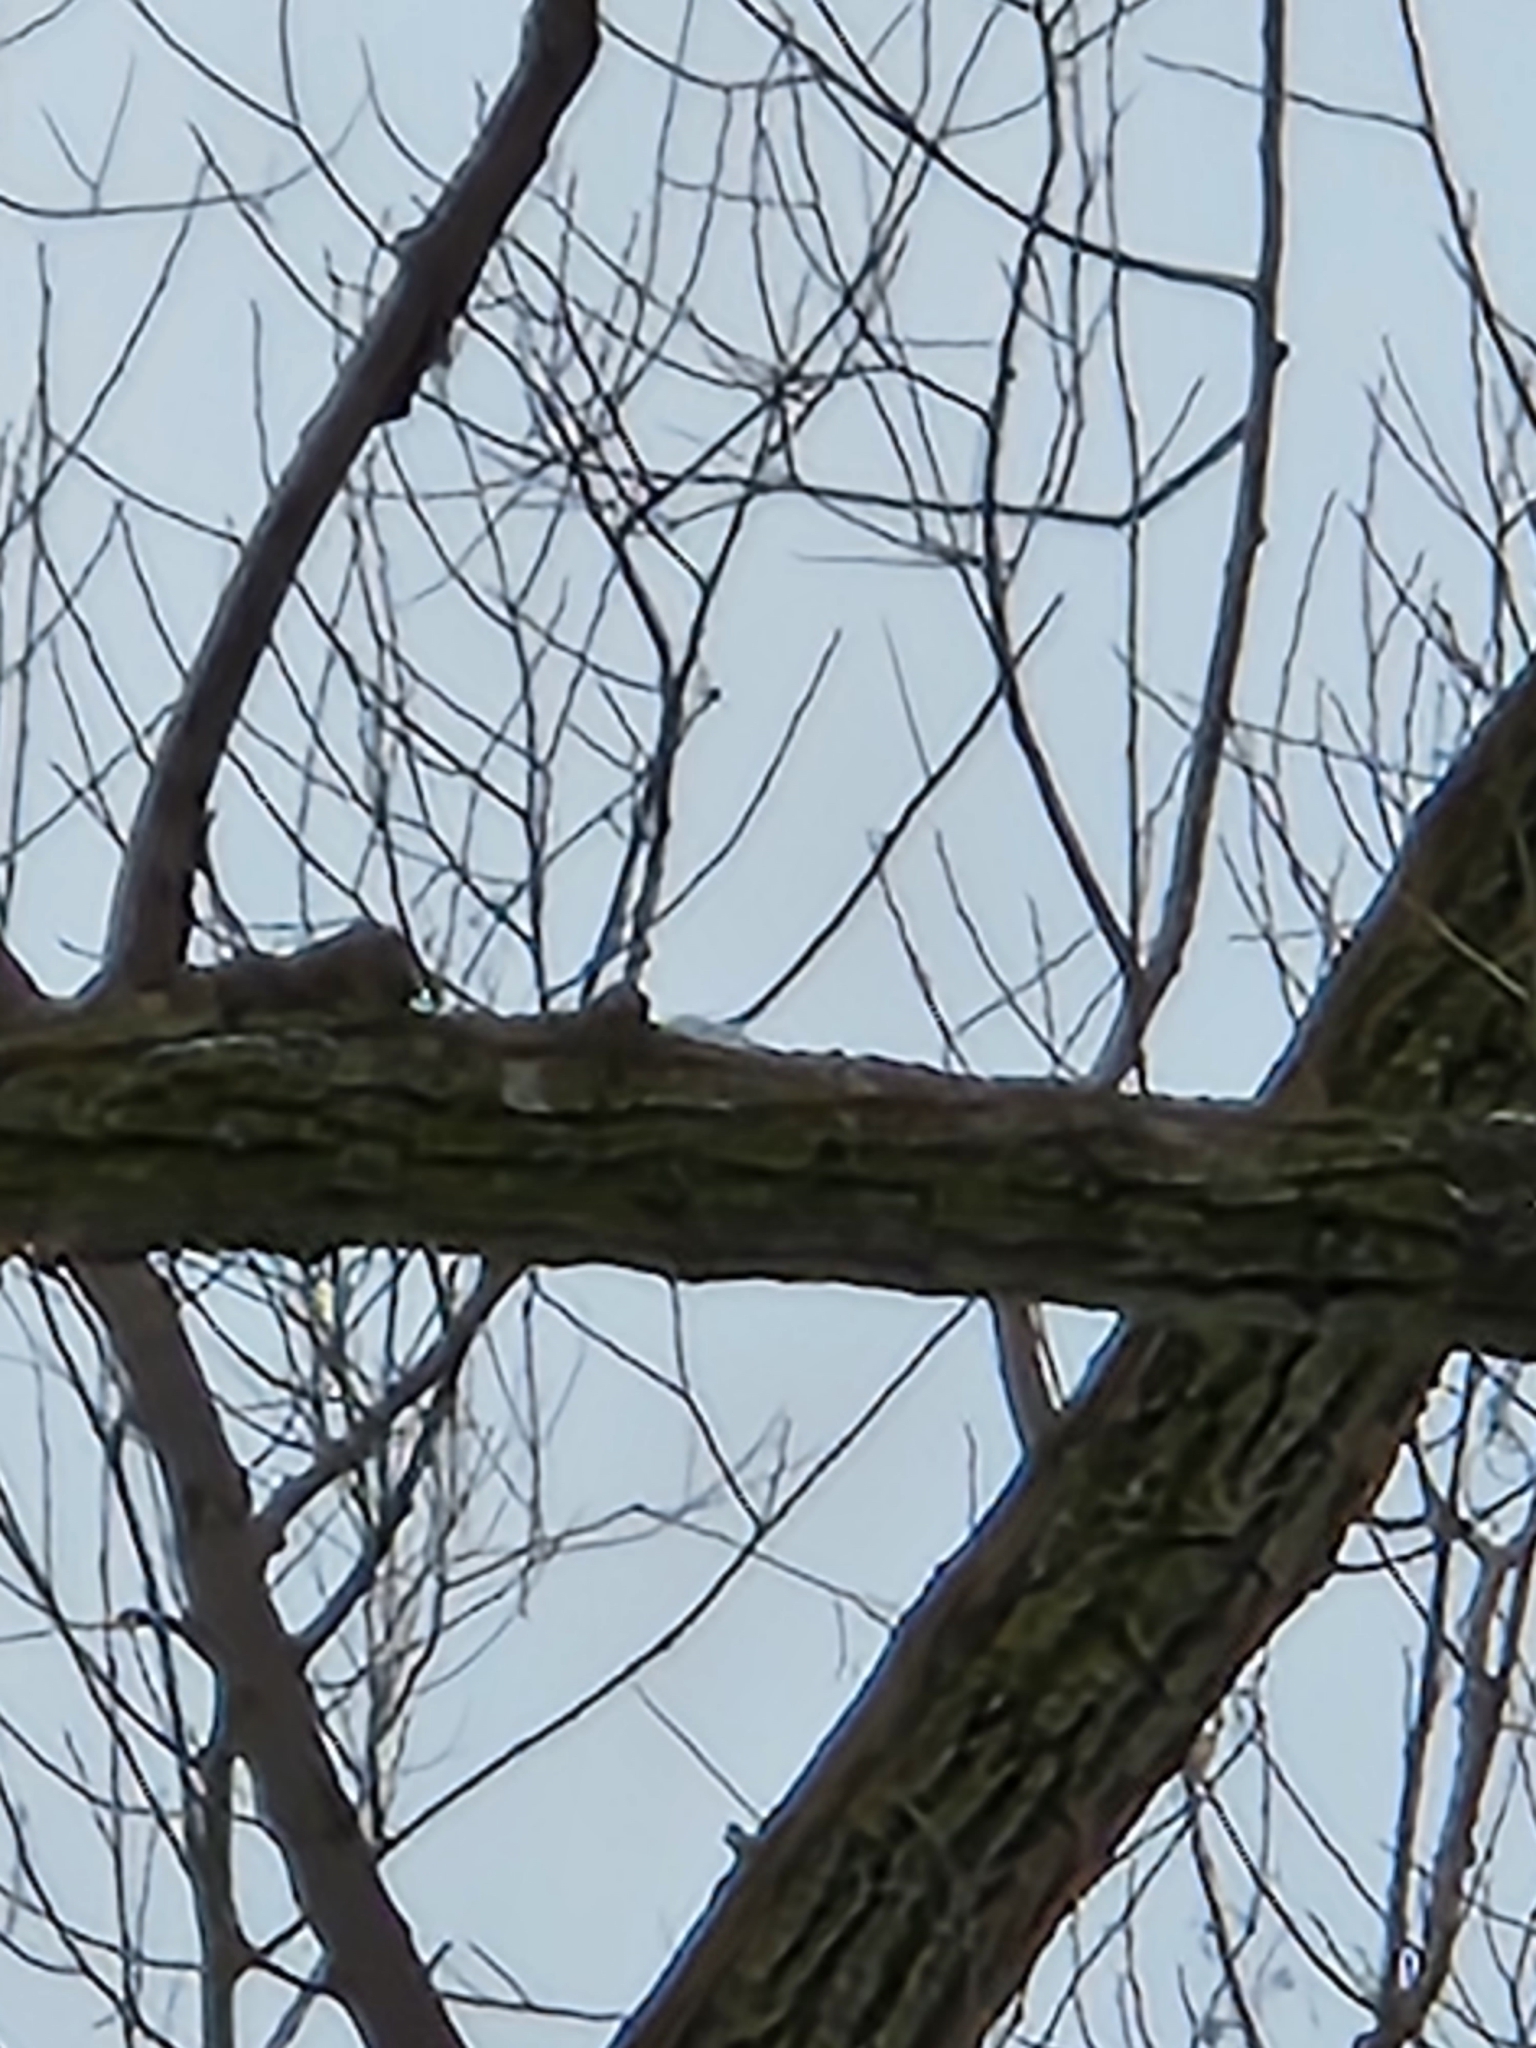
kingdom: Animalia
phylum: Chordata
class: Aves
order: Piciformes
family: Picidae
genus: Leuconotopicus
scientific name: Leuconotopicus villosus
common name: Hairy woodpecker
